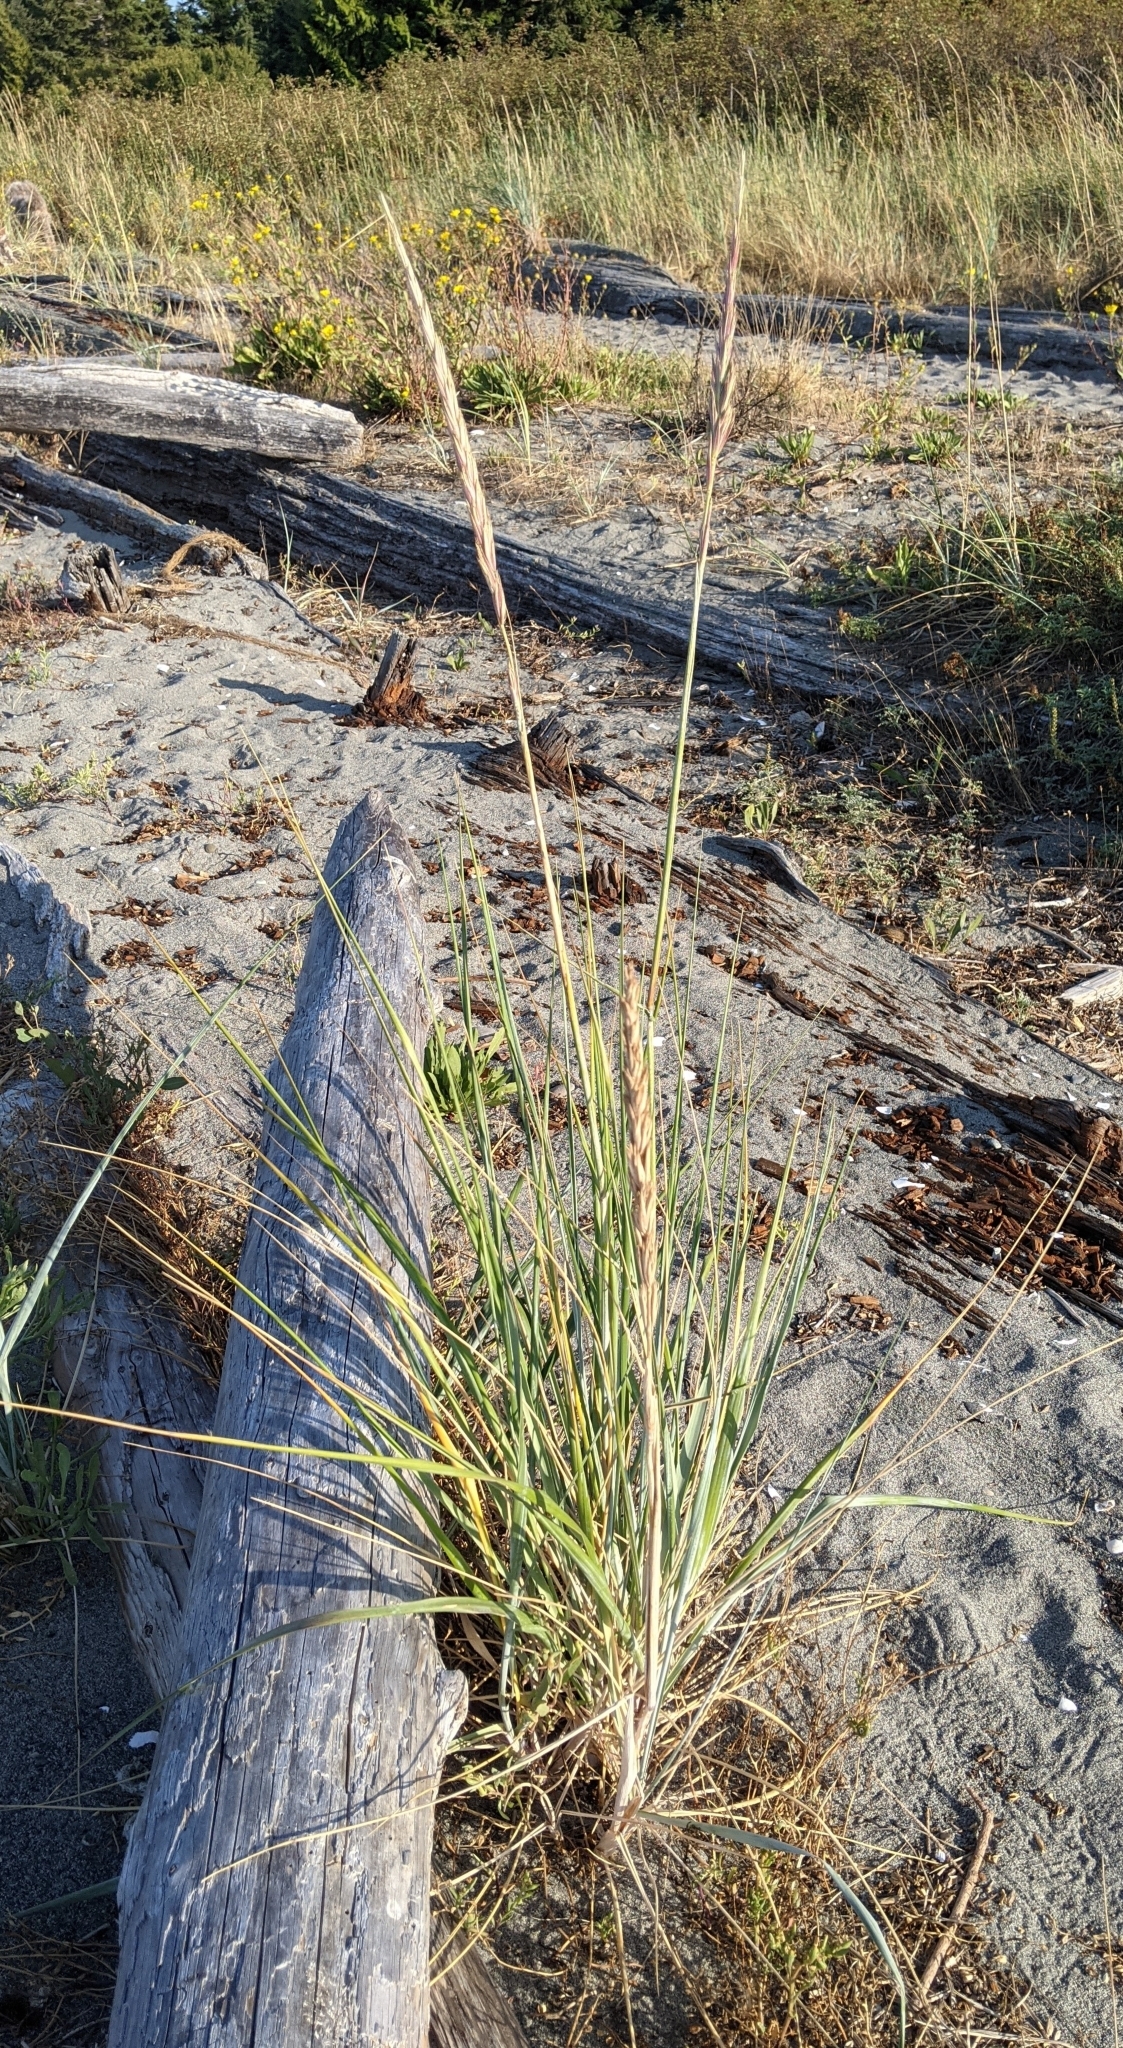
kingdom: Plantae
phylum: Tracheophyta
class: Liliopsida
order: Poales
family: Poaceae
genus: Leymus
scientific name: Leymus mollis
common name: American dune grass
